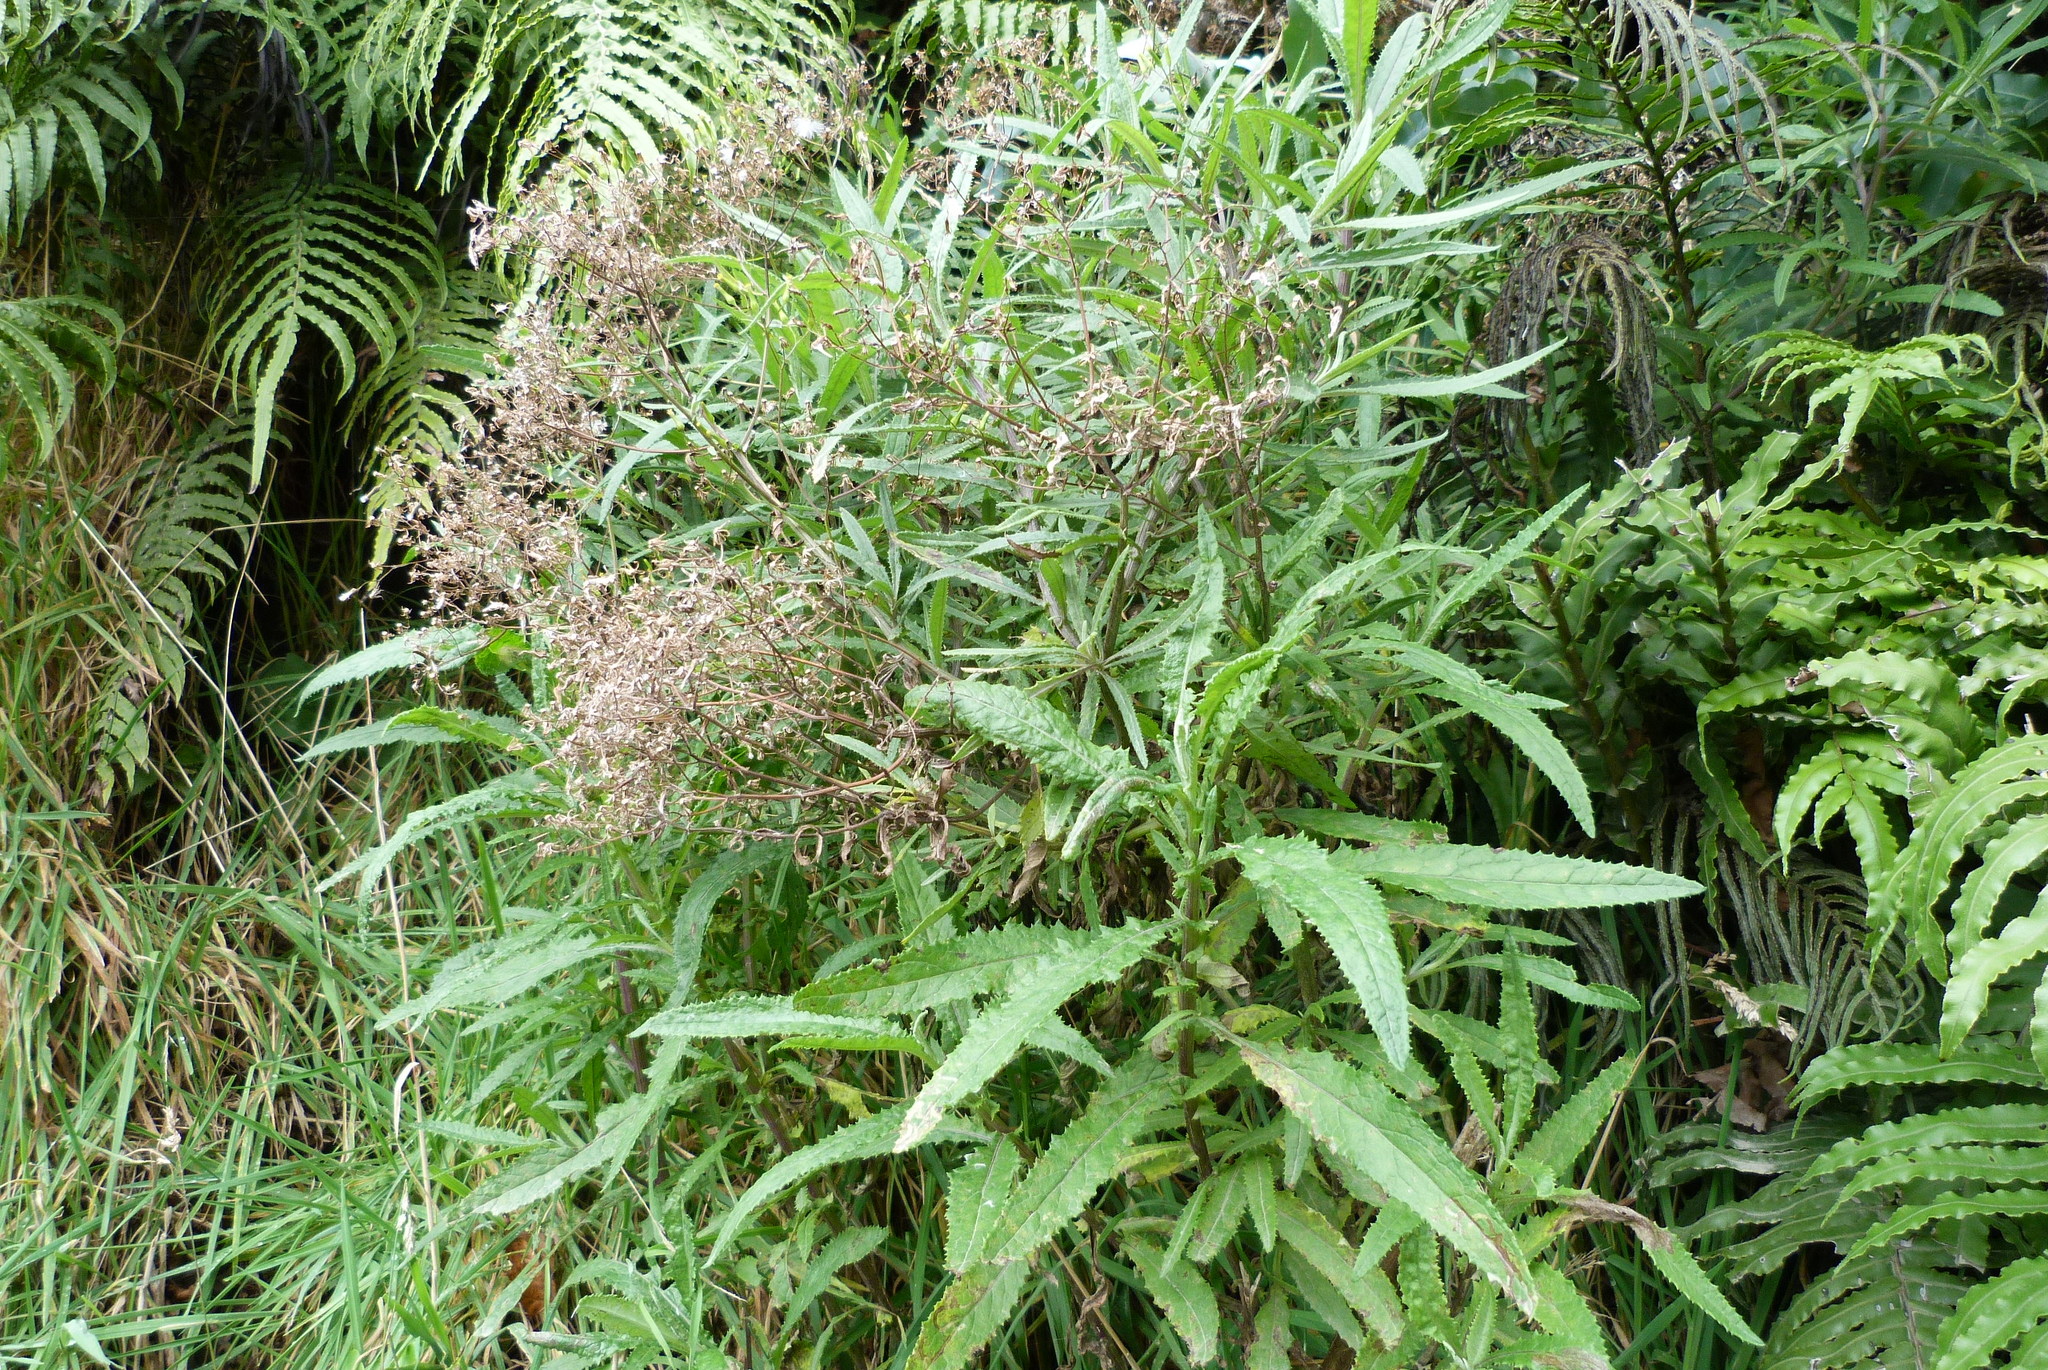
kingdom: Plantae
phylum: Tracheophyta
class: Magnoliopsida
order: Asterales
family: Asteraceae
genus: Senecio
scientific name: Senecio minimus
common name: Toothed fireweed
